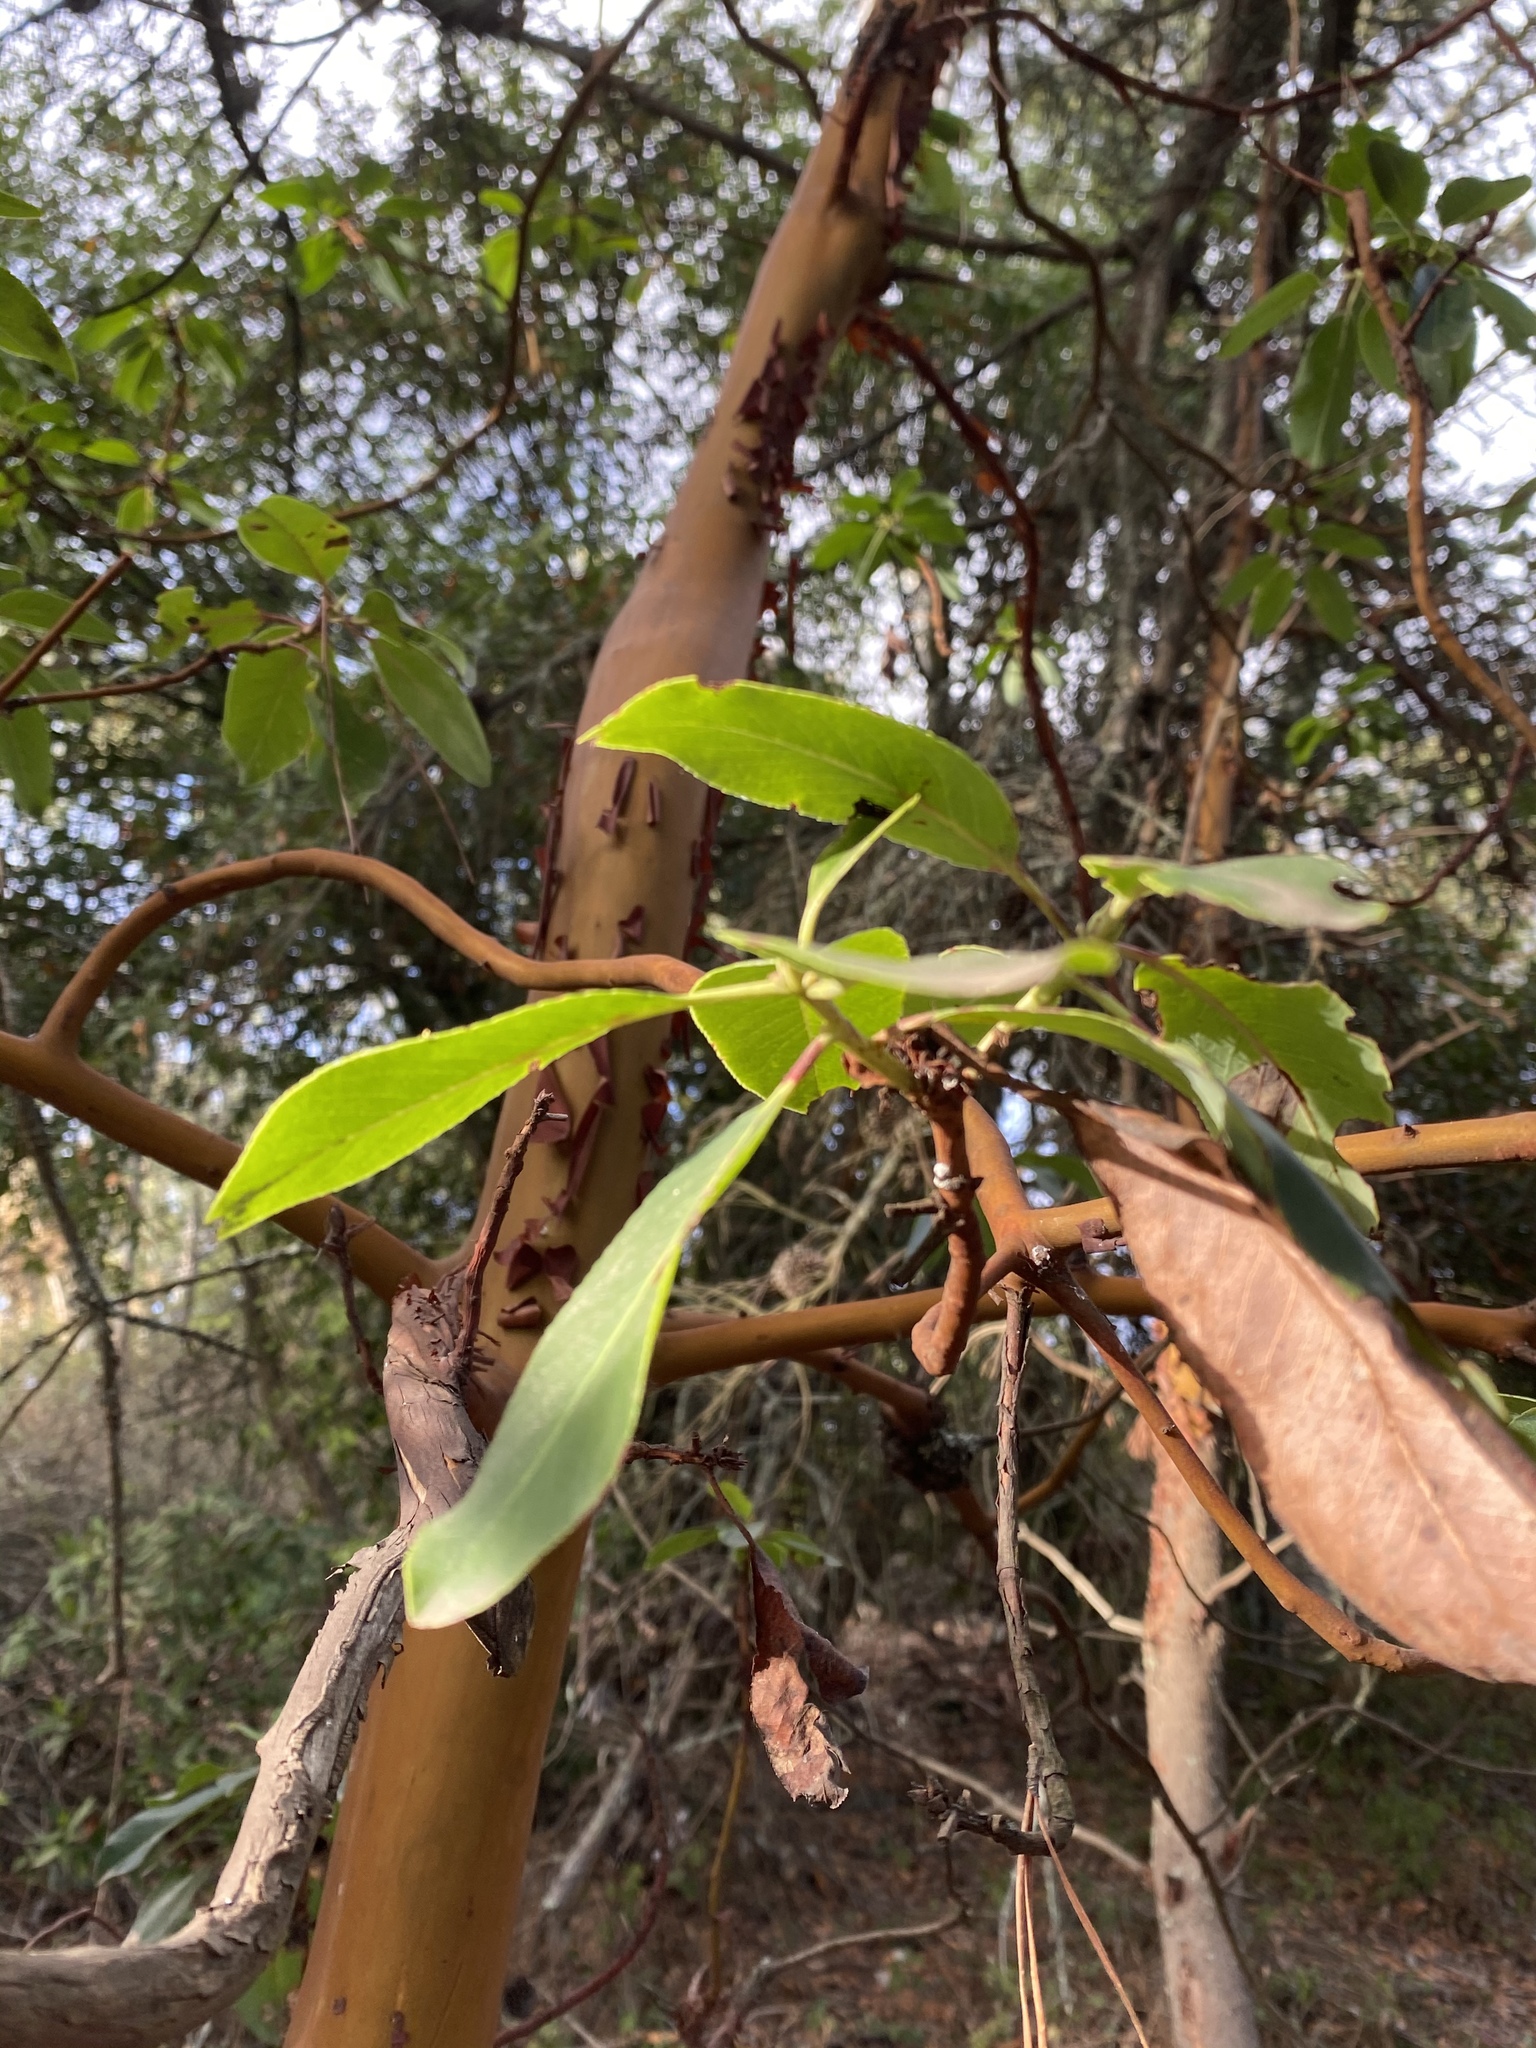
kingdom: Plantae
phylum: Tracheophyta
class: Magnoliopsida
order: Ericales
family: Ericaceae
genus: Arbutus
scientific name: Arbutus menziesii
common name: Pacific madrone
